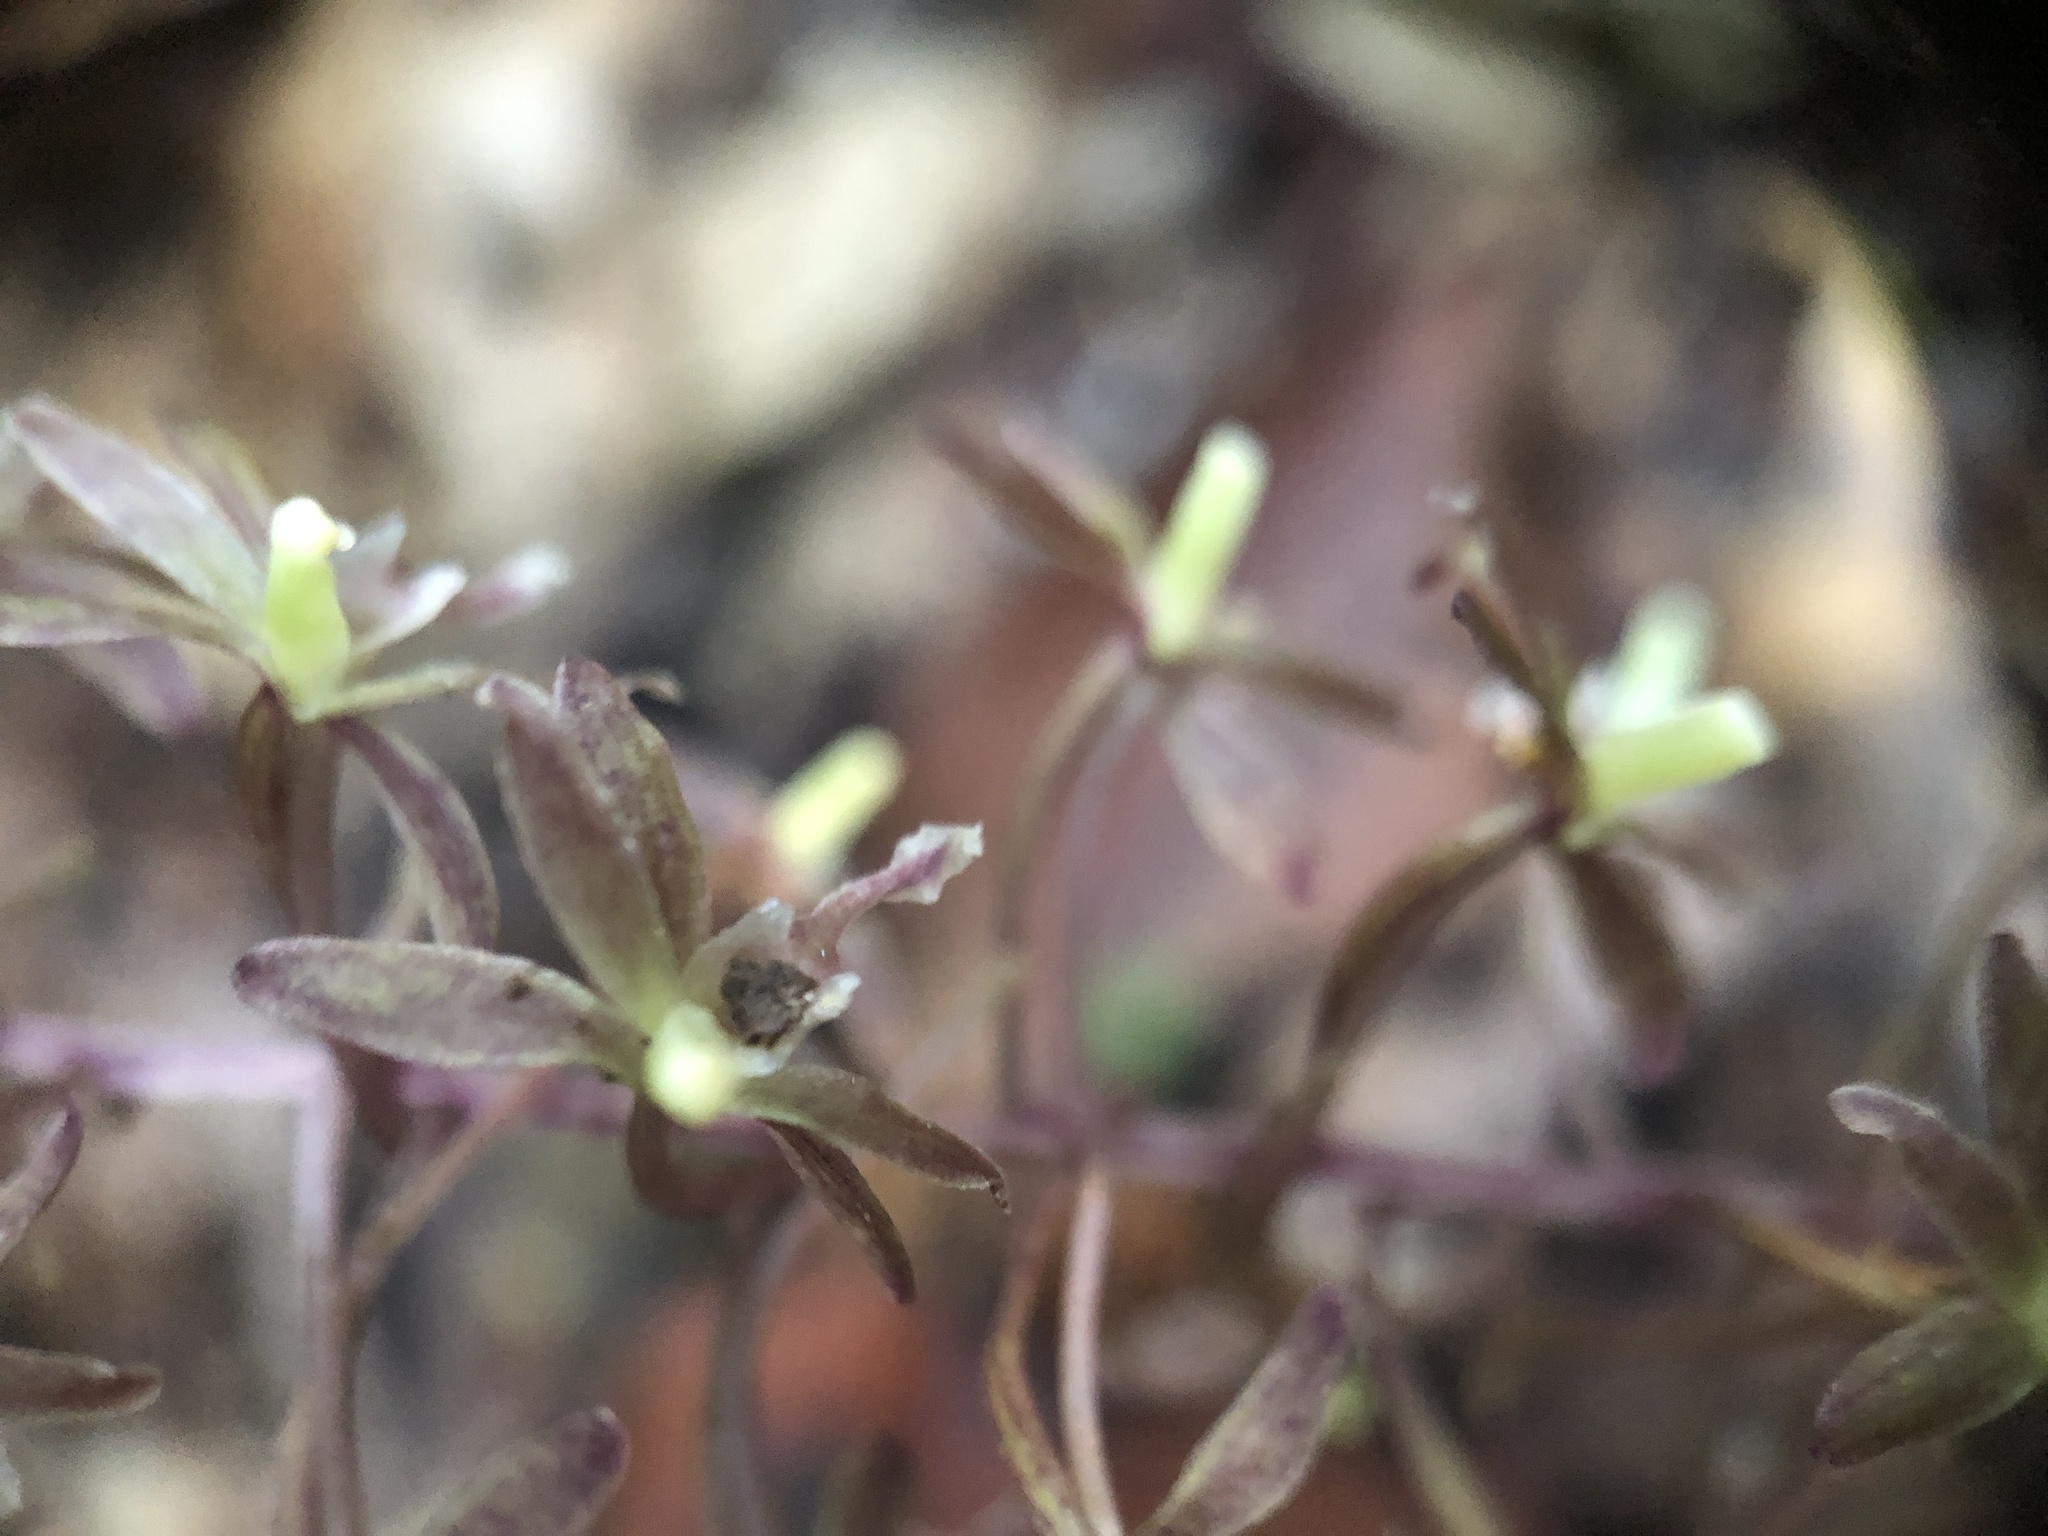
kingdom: Plantae
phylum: Tracheophyta
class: Liliopsida
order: Asparagales
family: Orchidaceae
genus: Tipularia
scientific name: Tipularia discolor
